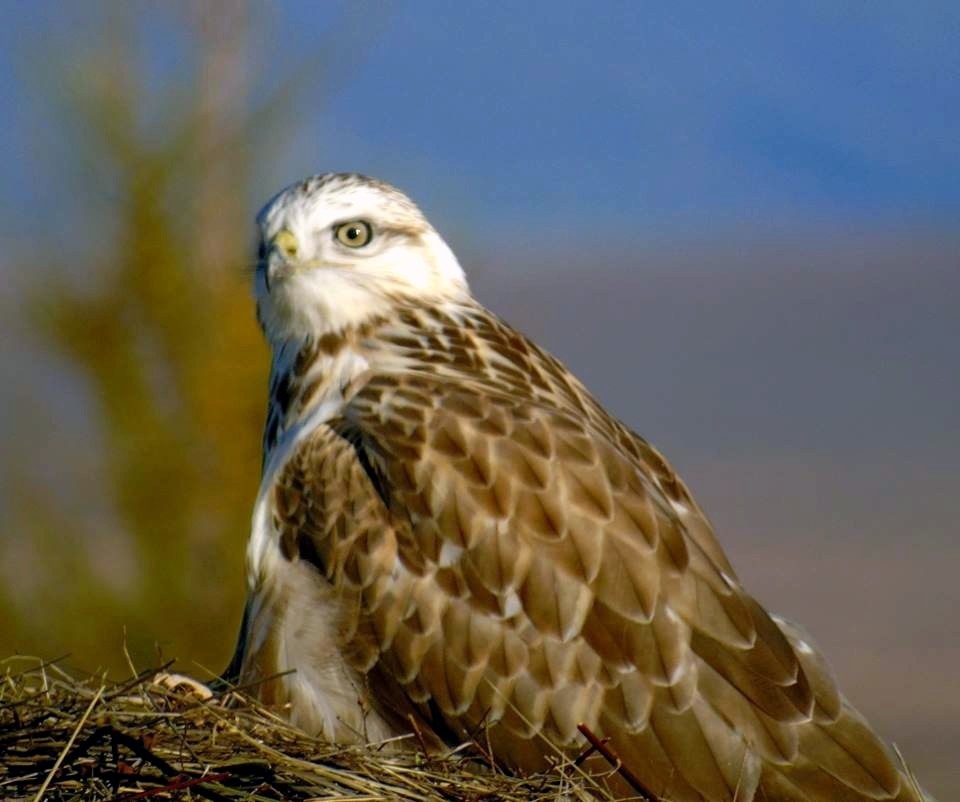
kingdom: Animalia
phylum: Chordata
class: Aves
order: Accipitriformes
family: Accipitridae
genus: Buteo
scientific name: Buteo hemilasius
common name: Upland buzzard
